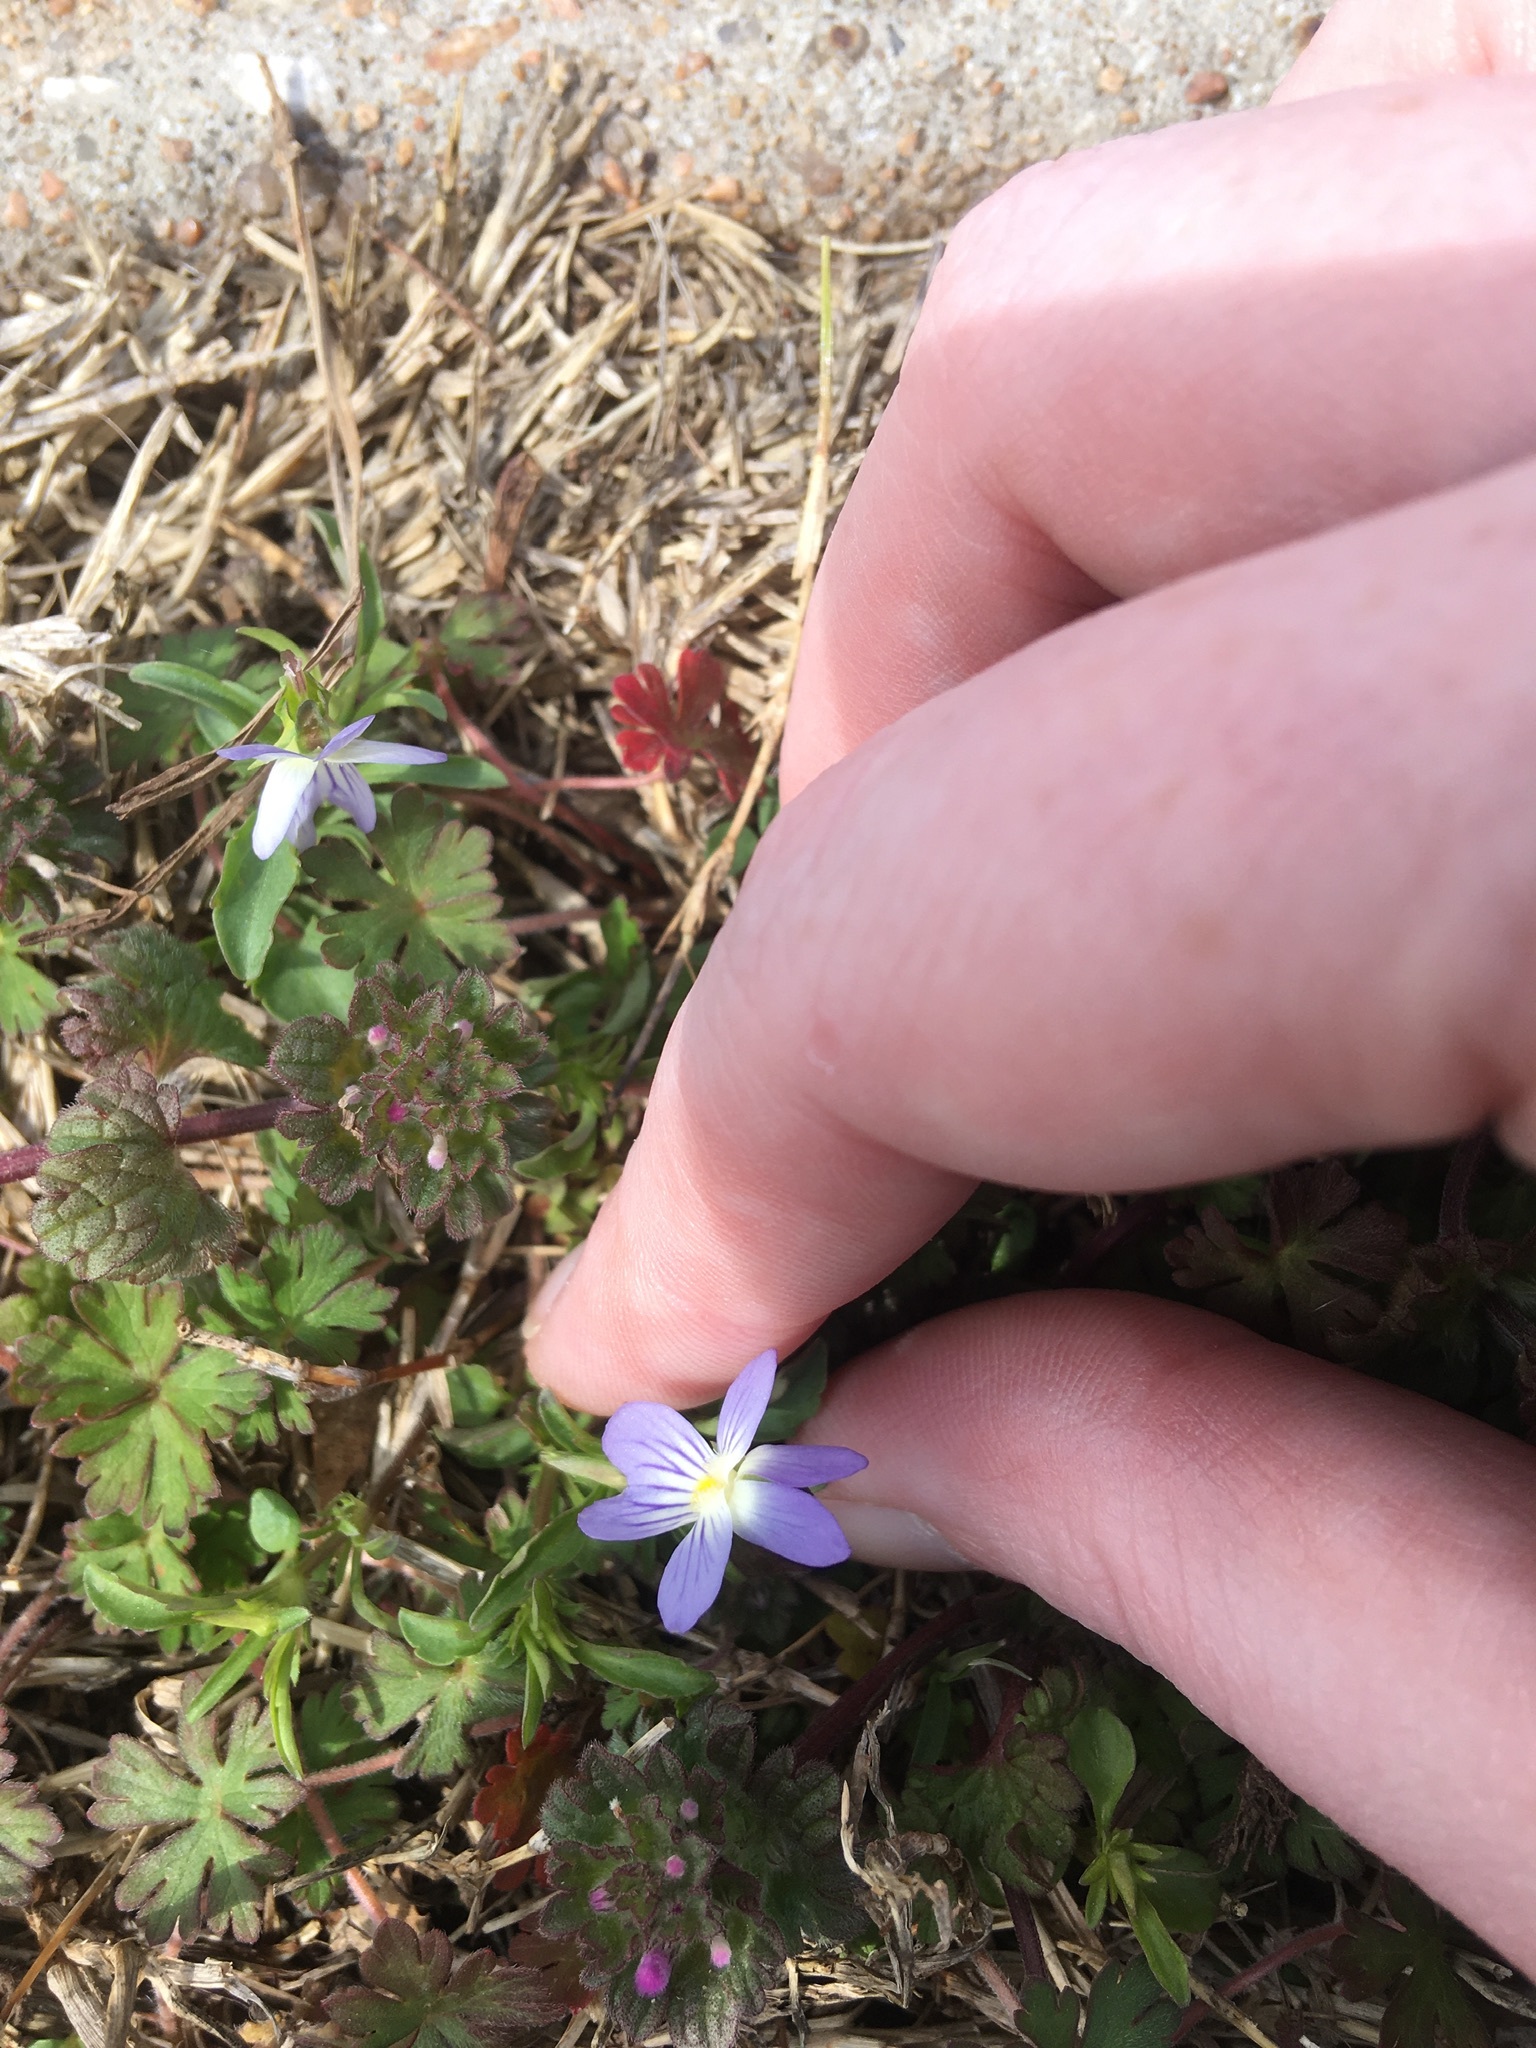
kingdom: Plantae
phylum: Tracheophyta
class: Magnoliopsida
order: Malpighiales
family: Violaceae
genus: Viola
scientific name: Viola rafinesquei
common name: American field pansy
